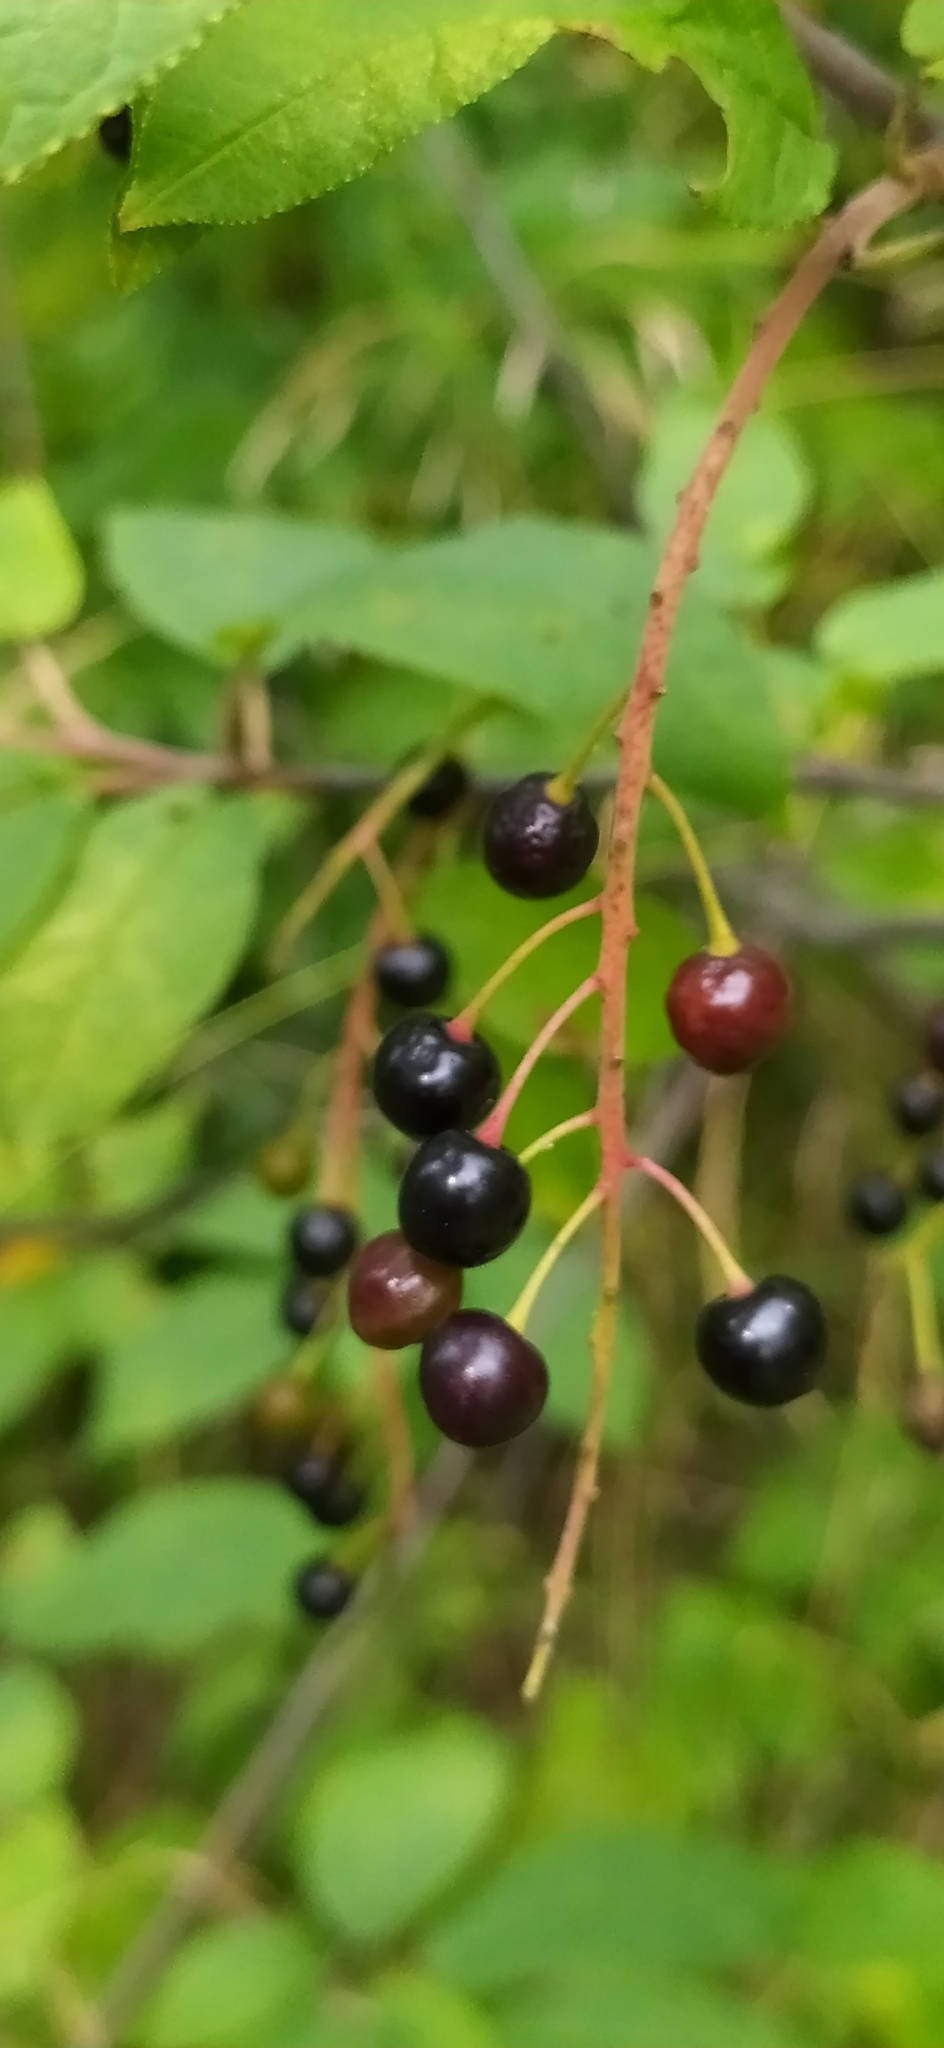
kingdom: Plantae
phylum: Tracheophyta
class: Magnoliopsida
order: Rosales
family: Rosaceae
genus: Prunus
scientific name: Prunus padus
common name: Bird cherry
